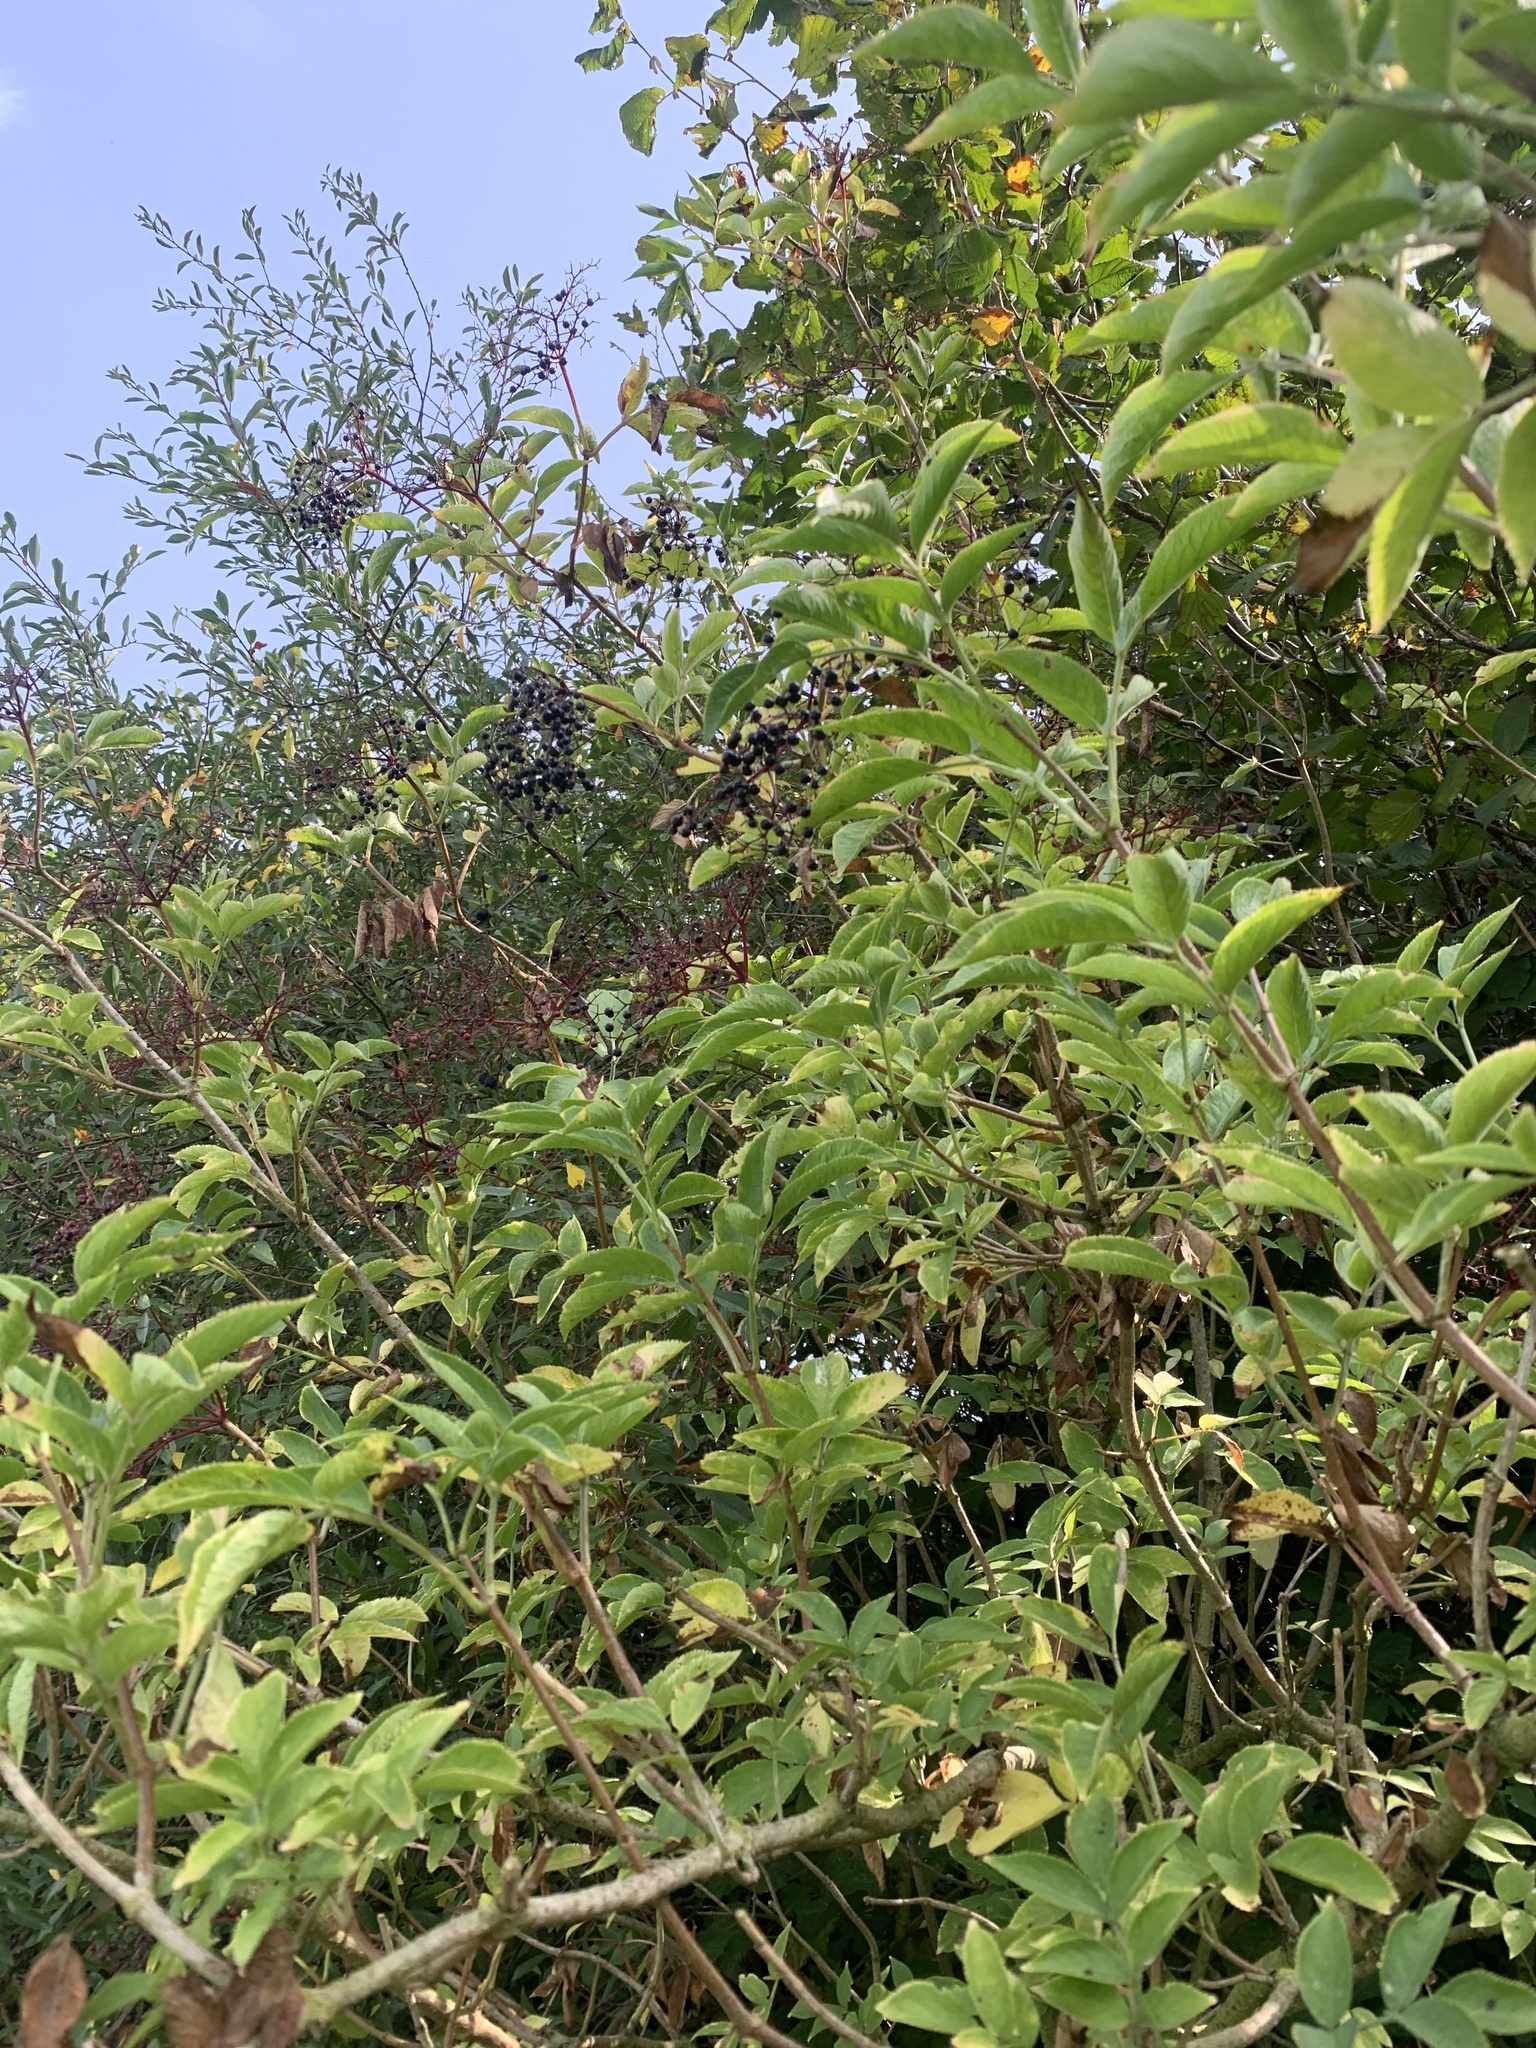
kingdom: Plantae
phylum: Tracheophyta
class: Magnoliopsida
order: Dipsacales
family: Viburnaceae
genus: Sambucus
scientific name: Sambucus nigra
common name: Elder
